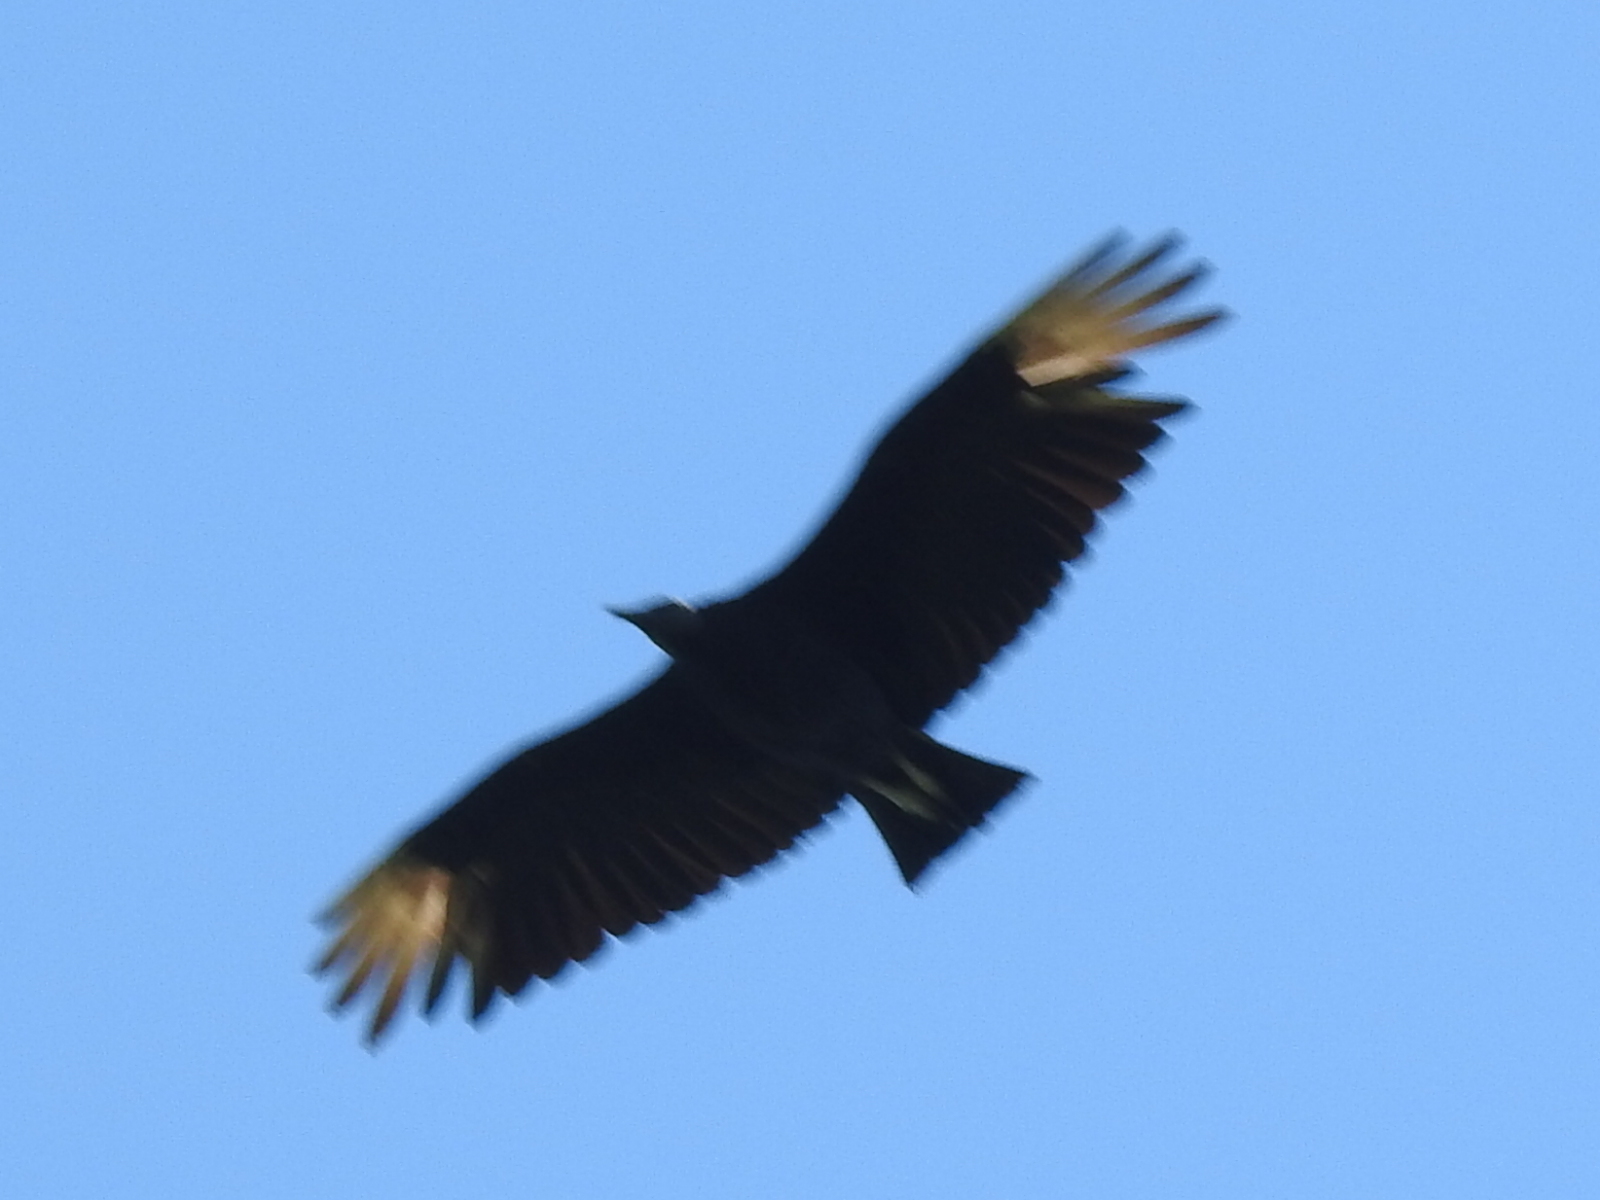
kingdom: Animalia
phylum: Chordata
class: Aves
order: Accipitriformes
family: Cathartidae
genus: Coragyps
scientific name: Coragyps atratus
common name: Black vulture
